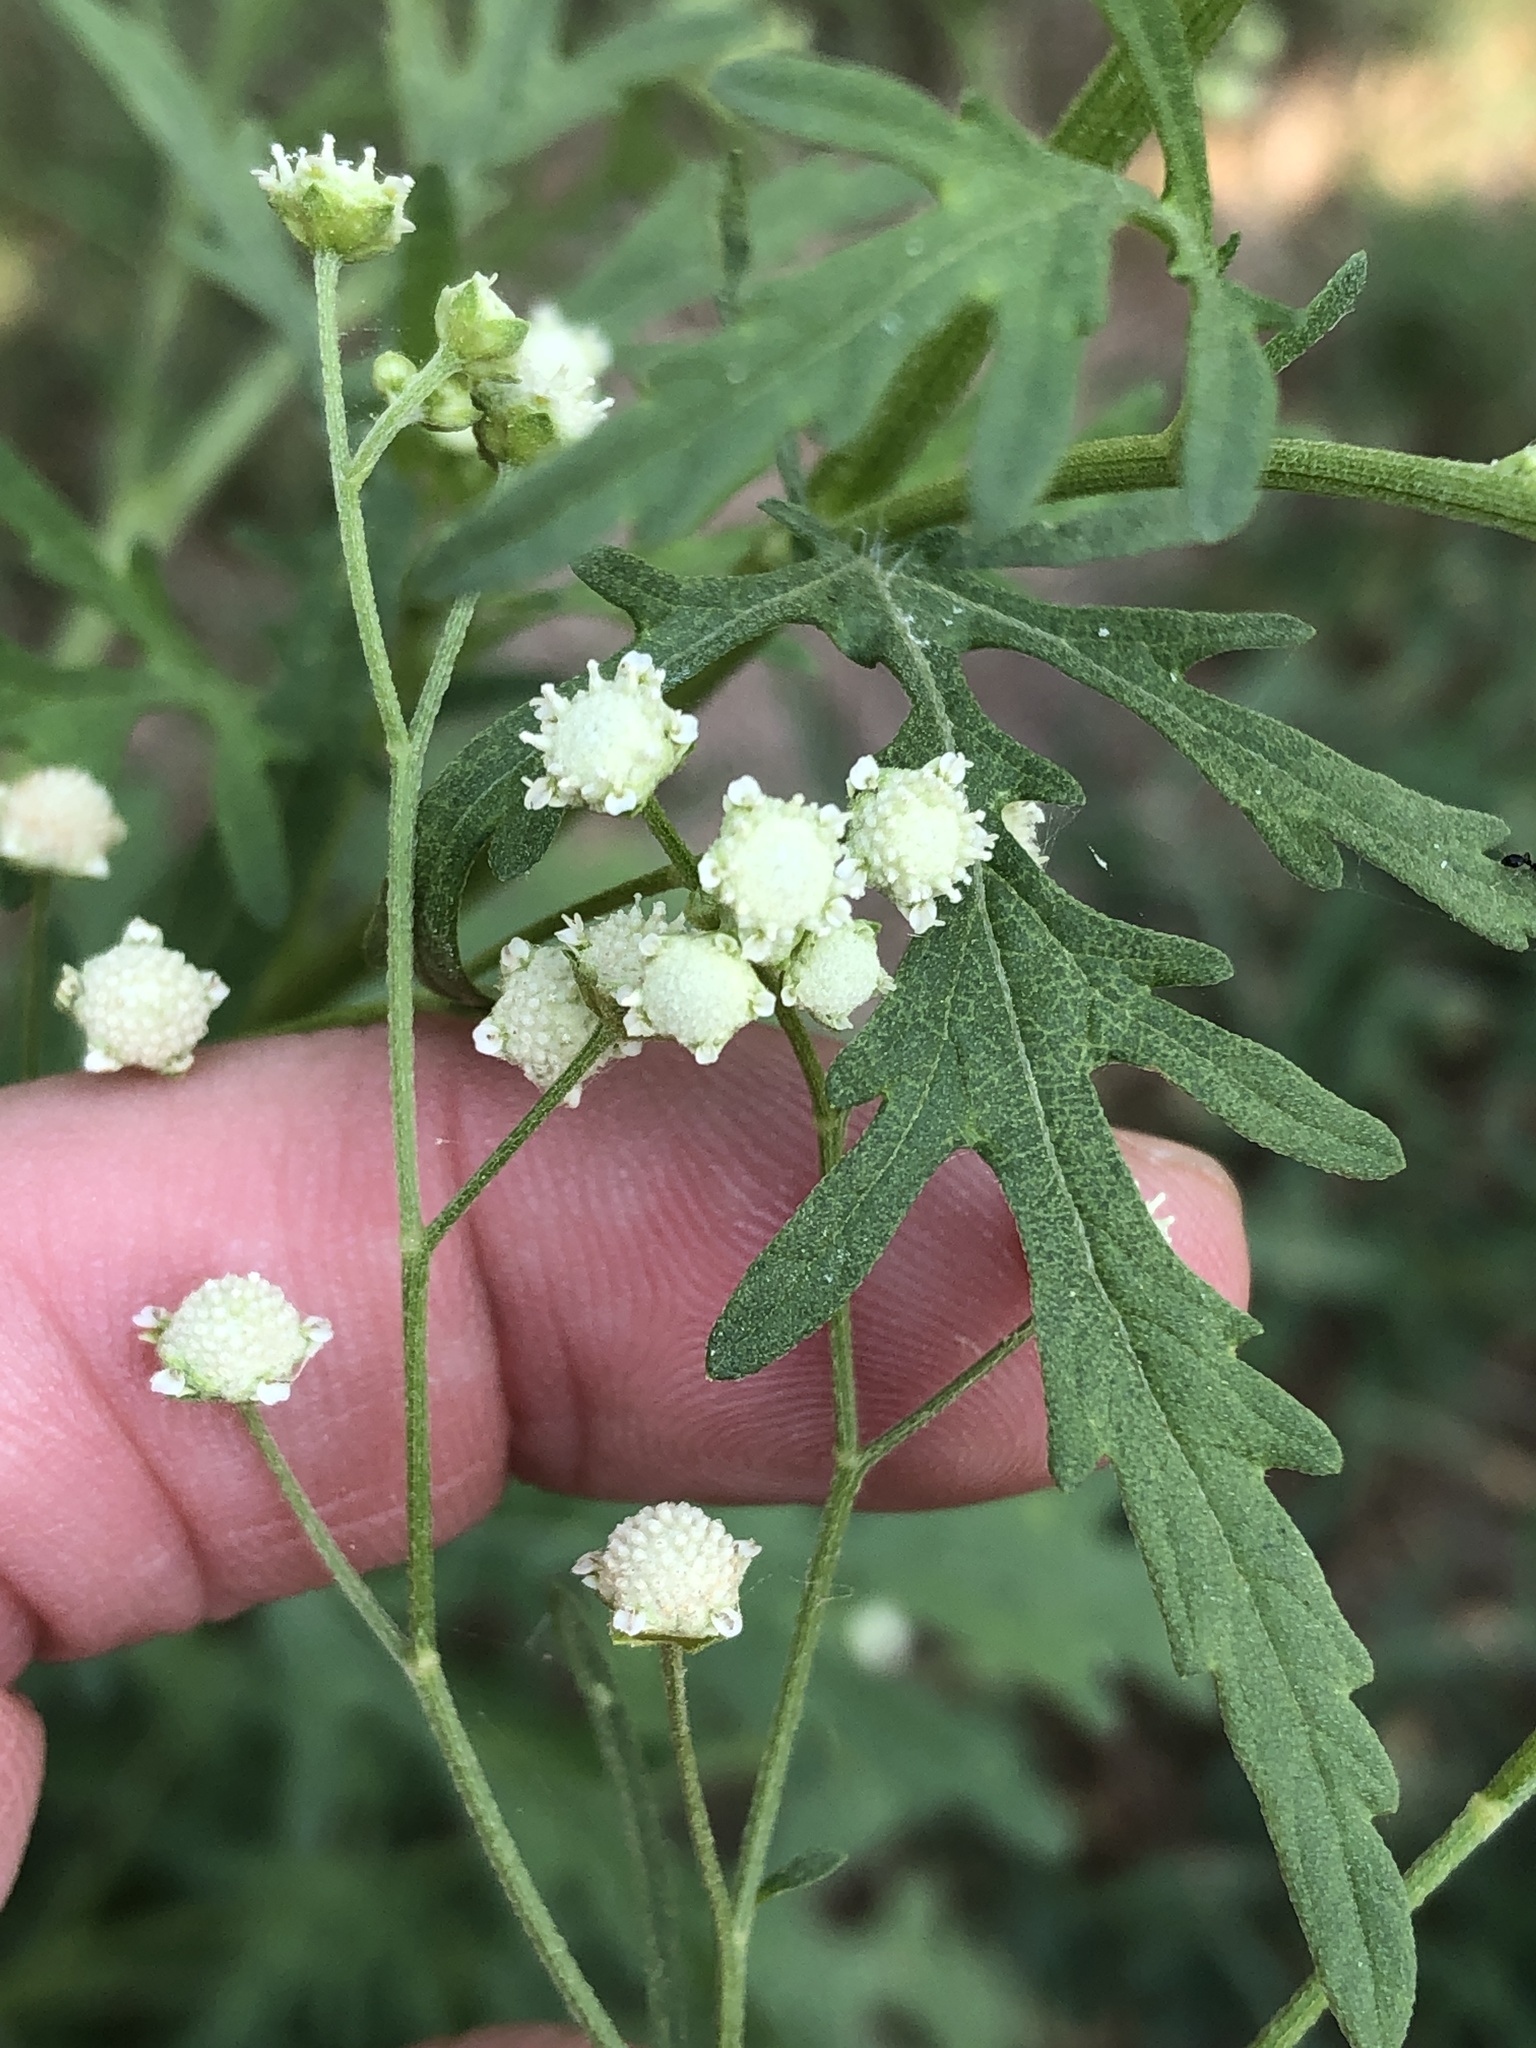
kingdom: Plantae
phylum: Tracheophyta
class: Magnoliopsida
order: Asterales
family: Asteraceae
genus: Parthenium
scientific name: Parthenium hysterophorus
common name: Santa maria feverfew
